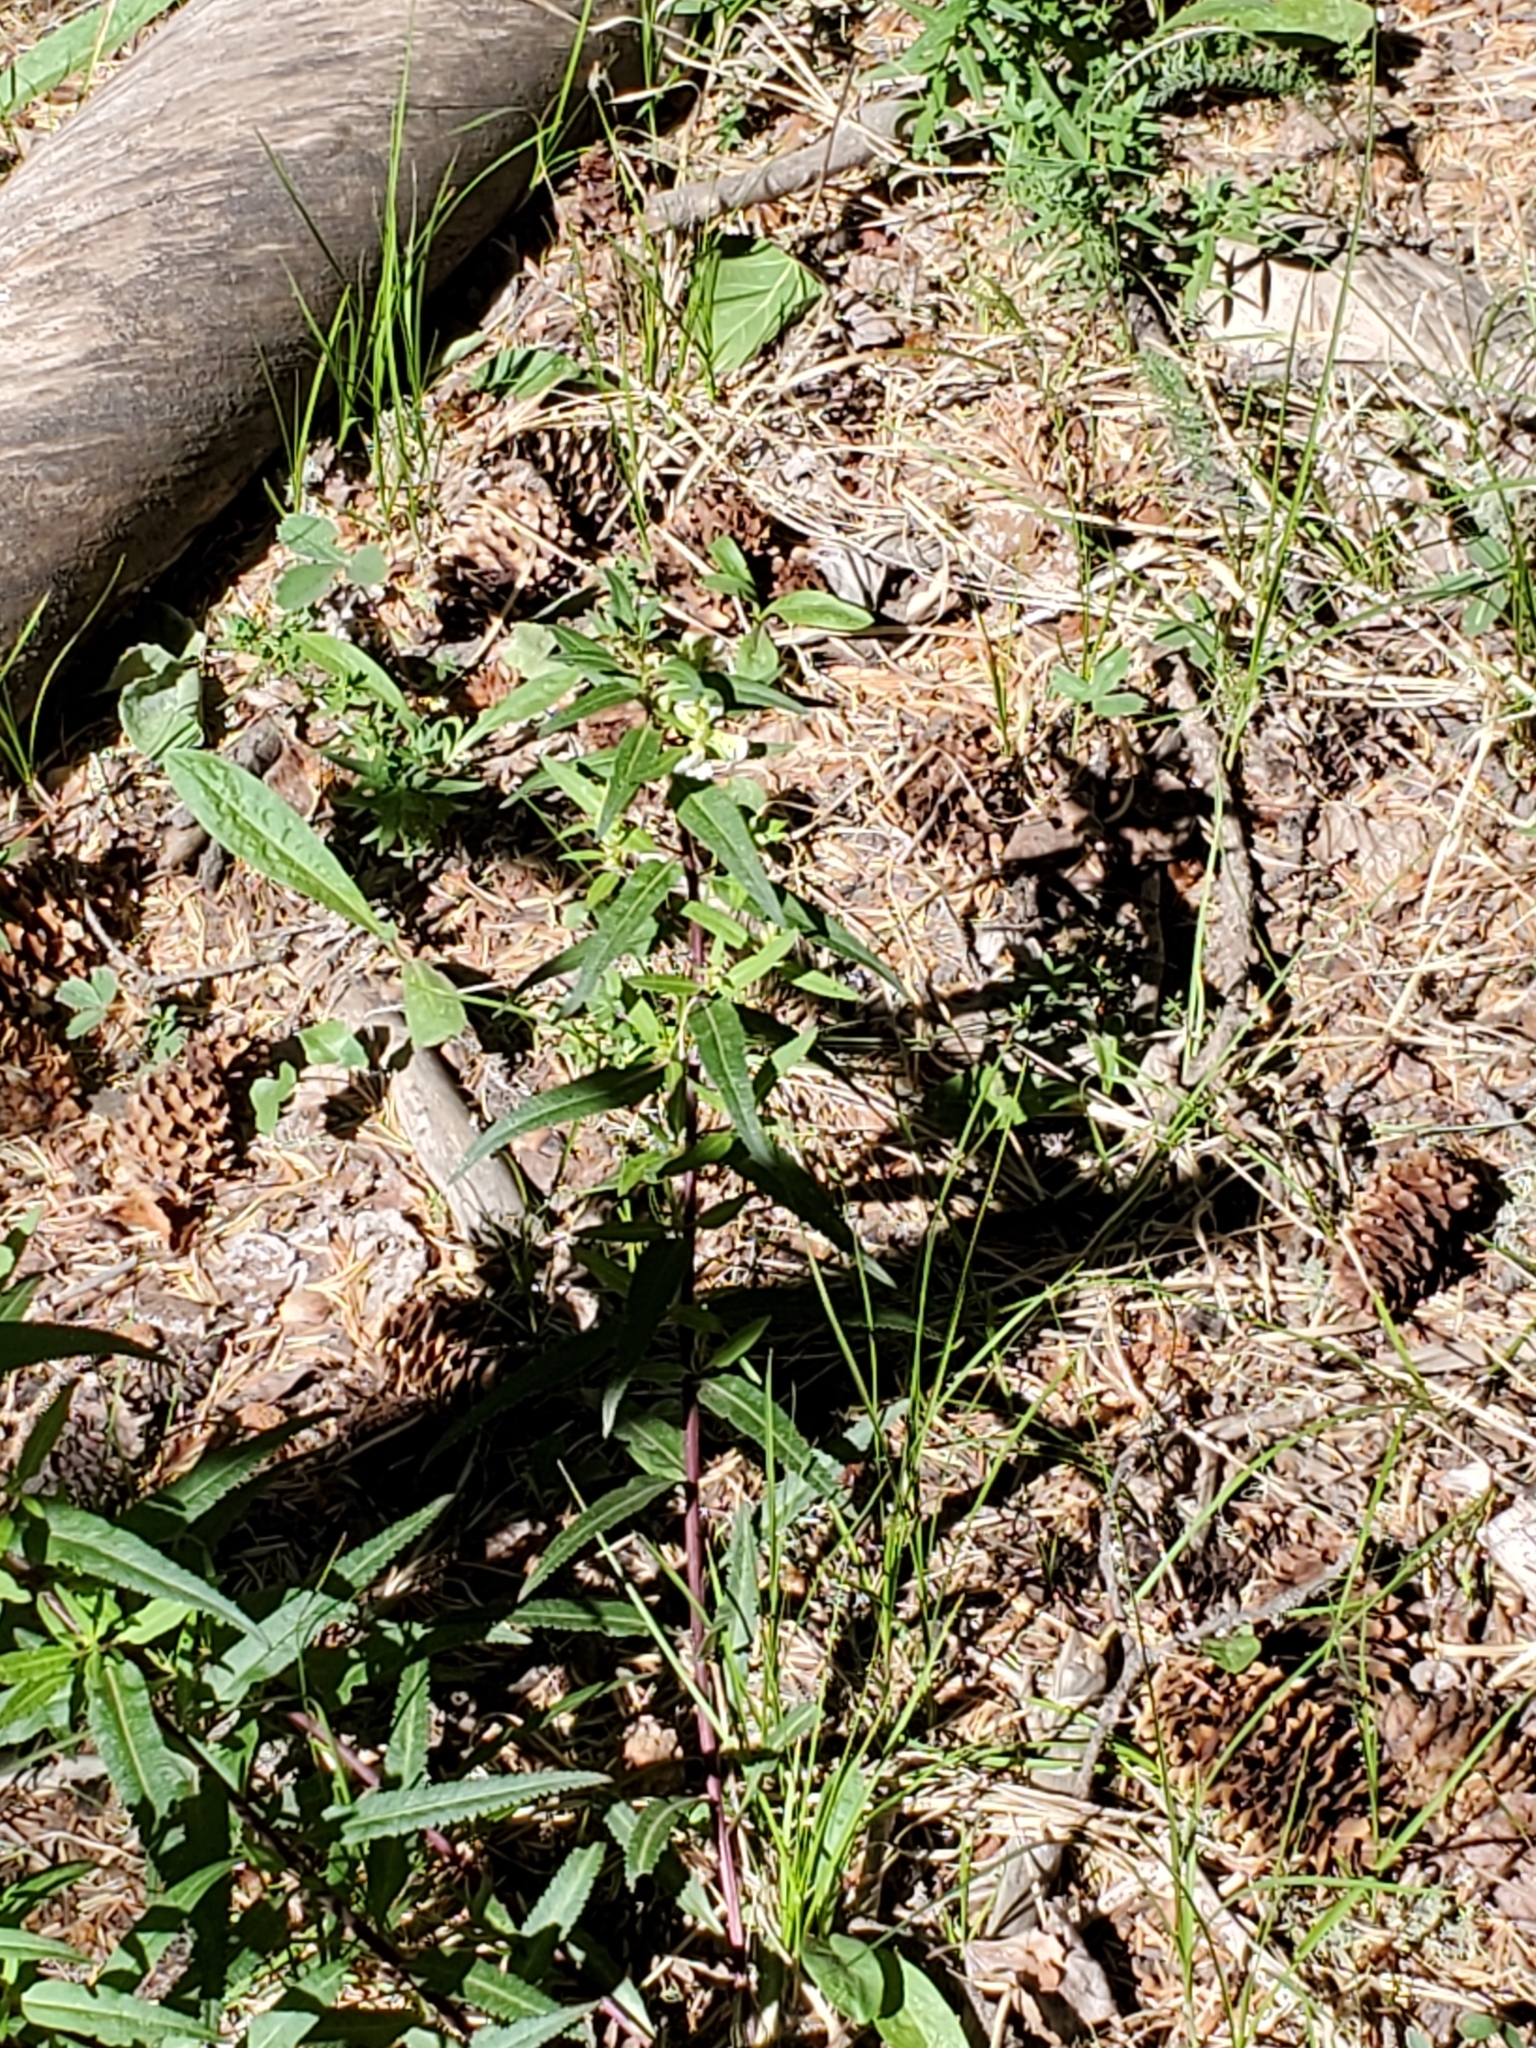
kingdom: Plantae
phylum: Tracheophyta
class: Magnoliopsida
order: Lamiales
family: Orobanchaceae
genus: Pedicularis
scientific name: Pedicularis racemosa
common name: Leafy lousewort
